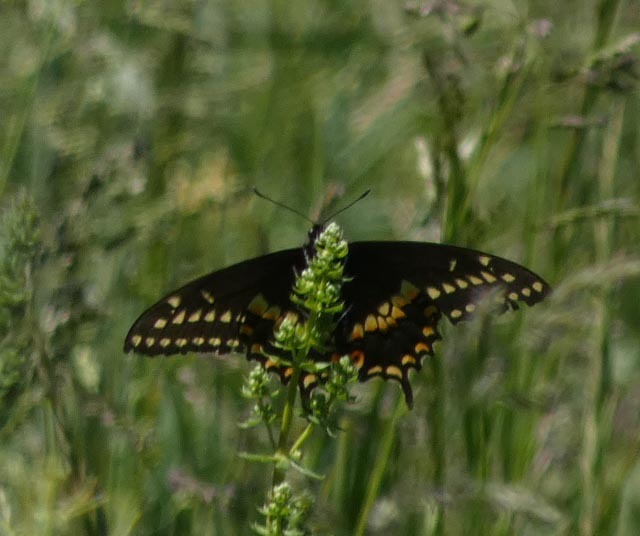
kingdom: Animalia
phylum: Arthropoda
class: Insecta
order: Lepidoptera
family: Papilionidae
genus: Papilio
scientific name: Papilio polyxenes
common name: Black swallowtail
